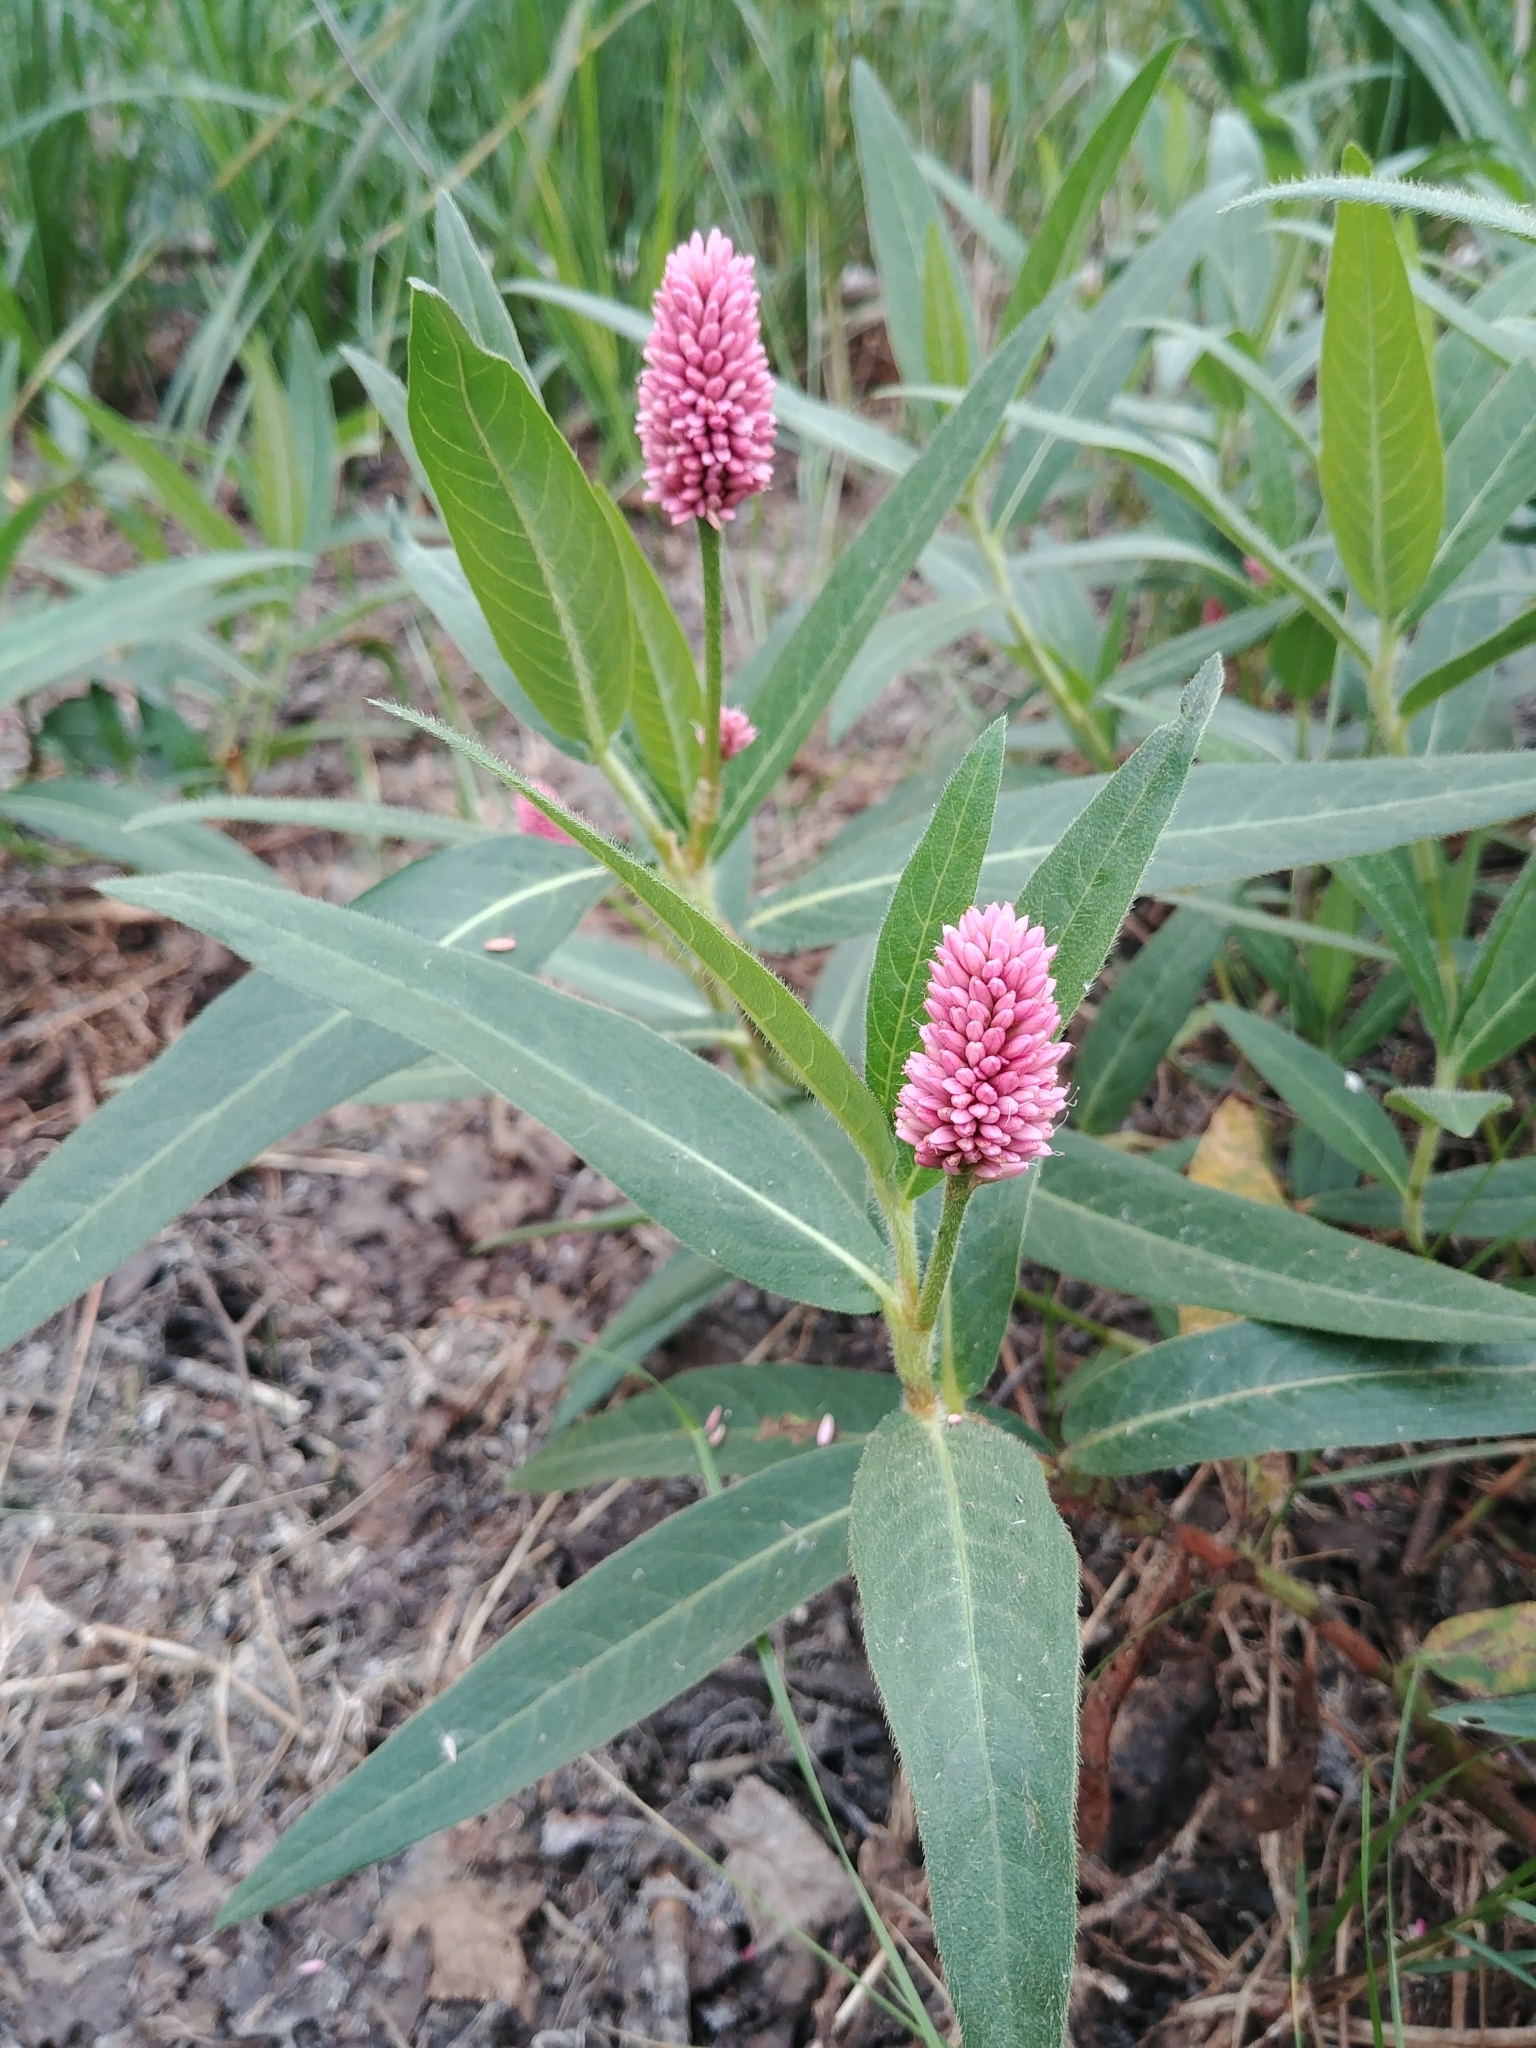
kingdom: Plantae
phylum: Tracheophyta
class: Magnoliopsida
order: Caryophyllales
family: Polygonaceae
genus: Persicaria
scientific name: Persicaria amphibia
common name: Amphibious bistort
